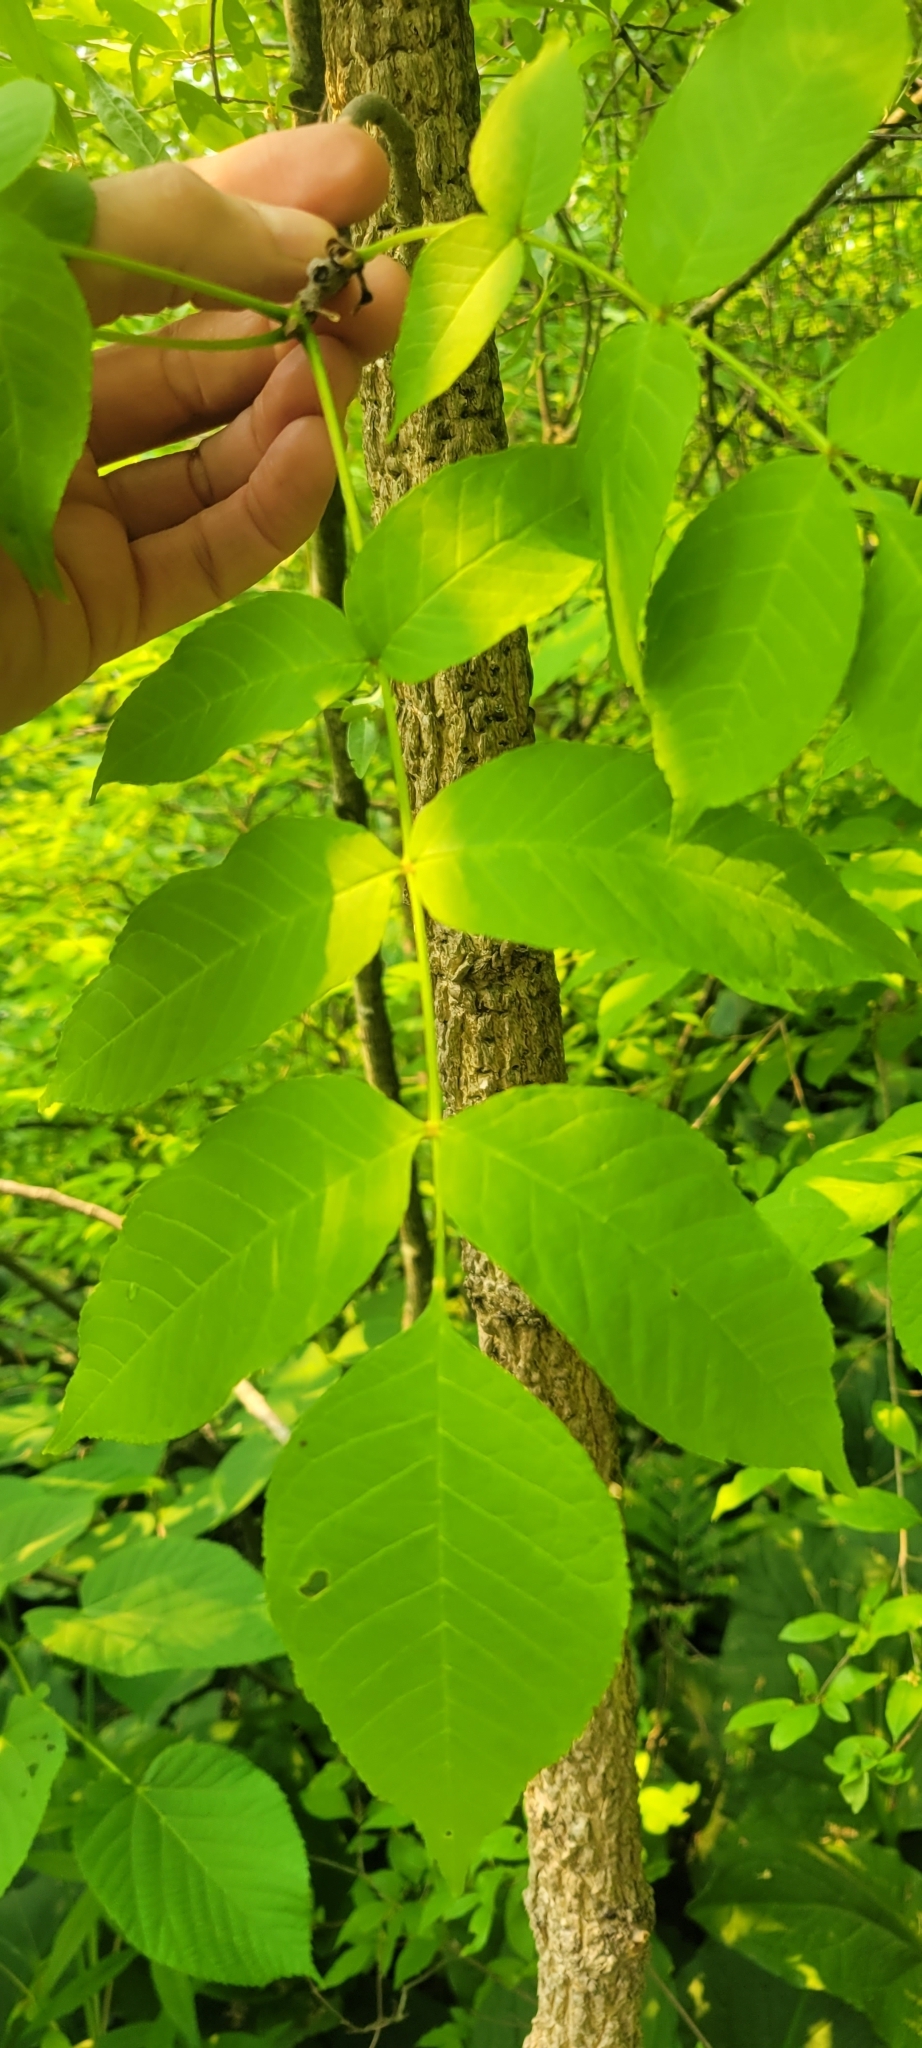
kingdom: Plantae
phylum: Tracheophyta
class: Magnoliopsida
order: Lamiales
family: Oleaceae
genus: Fraxinus
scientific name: Fraxinus nigra
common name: Black ash
